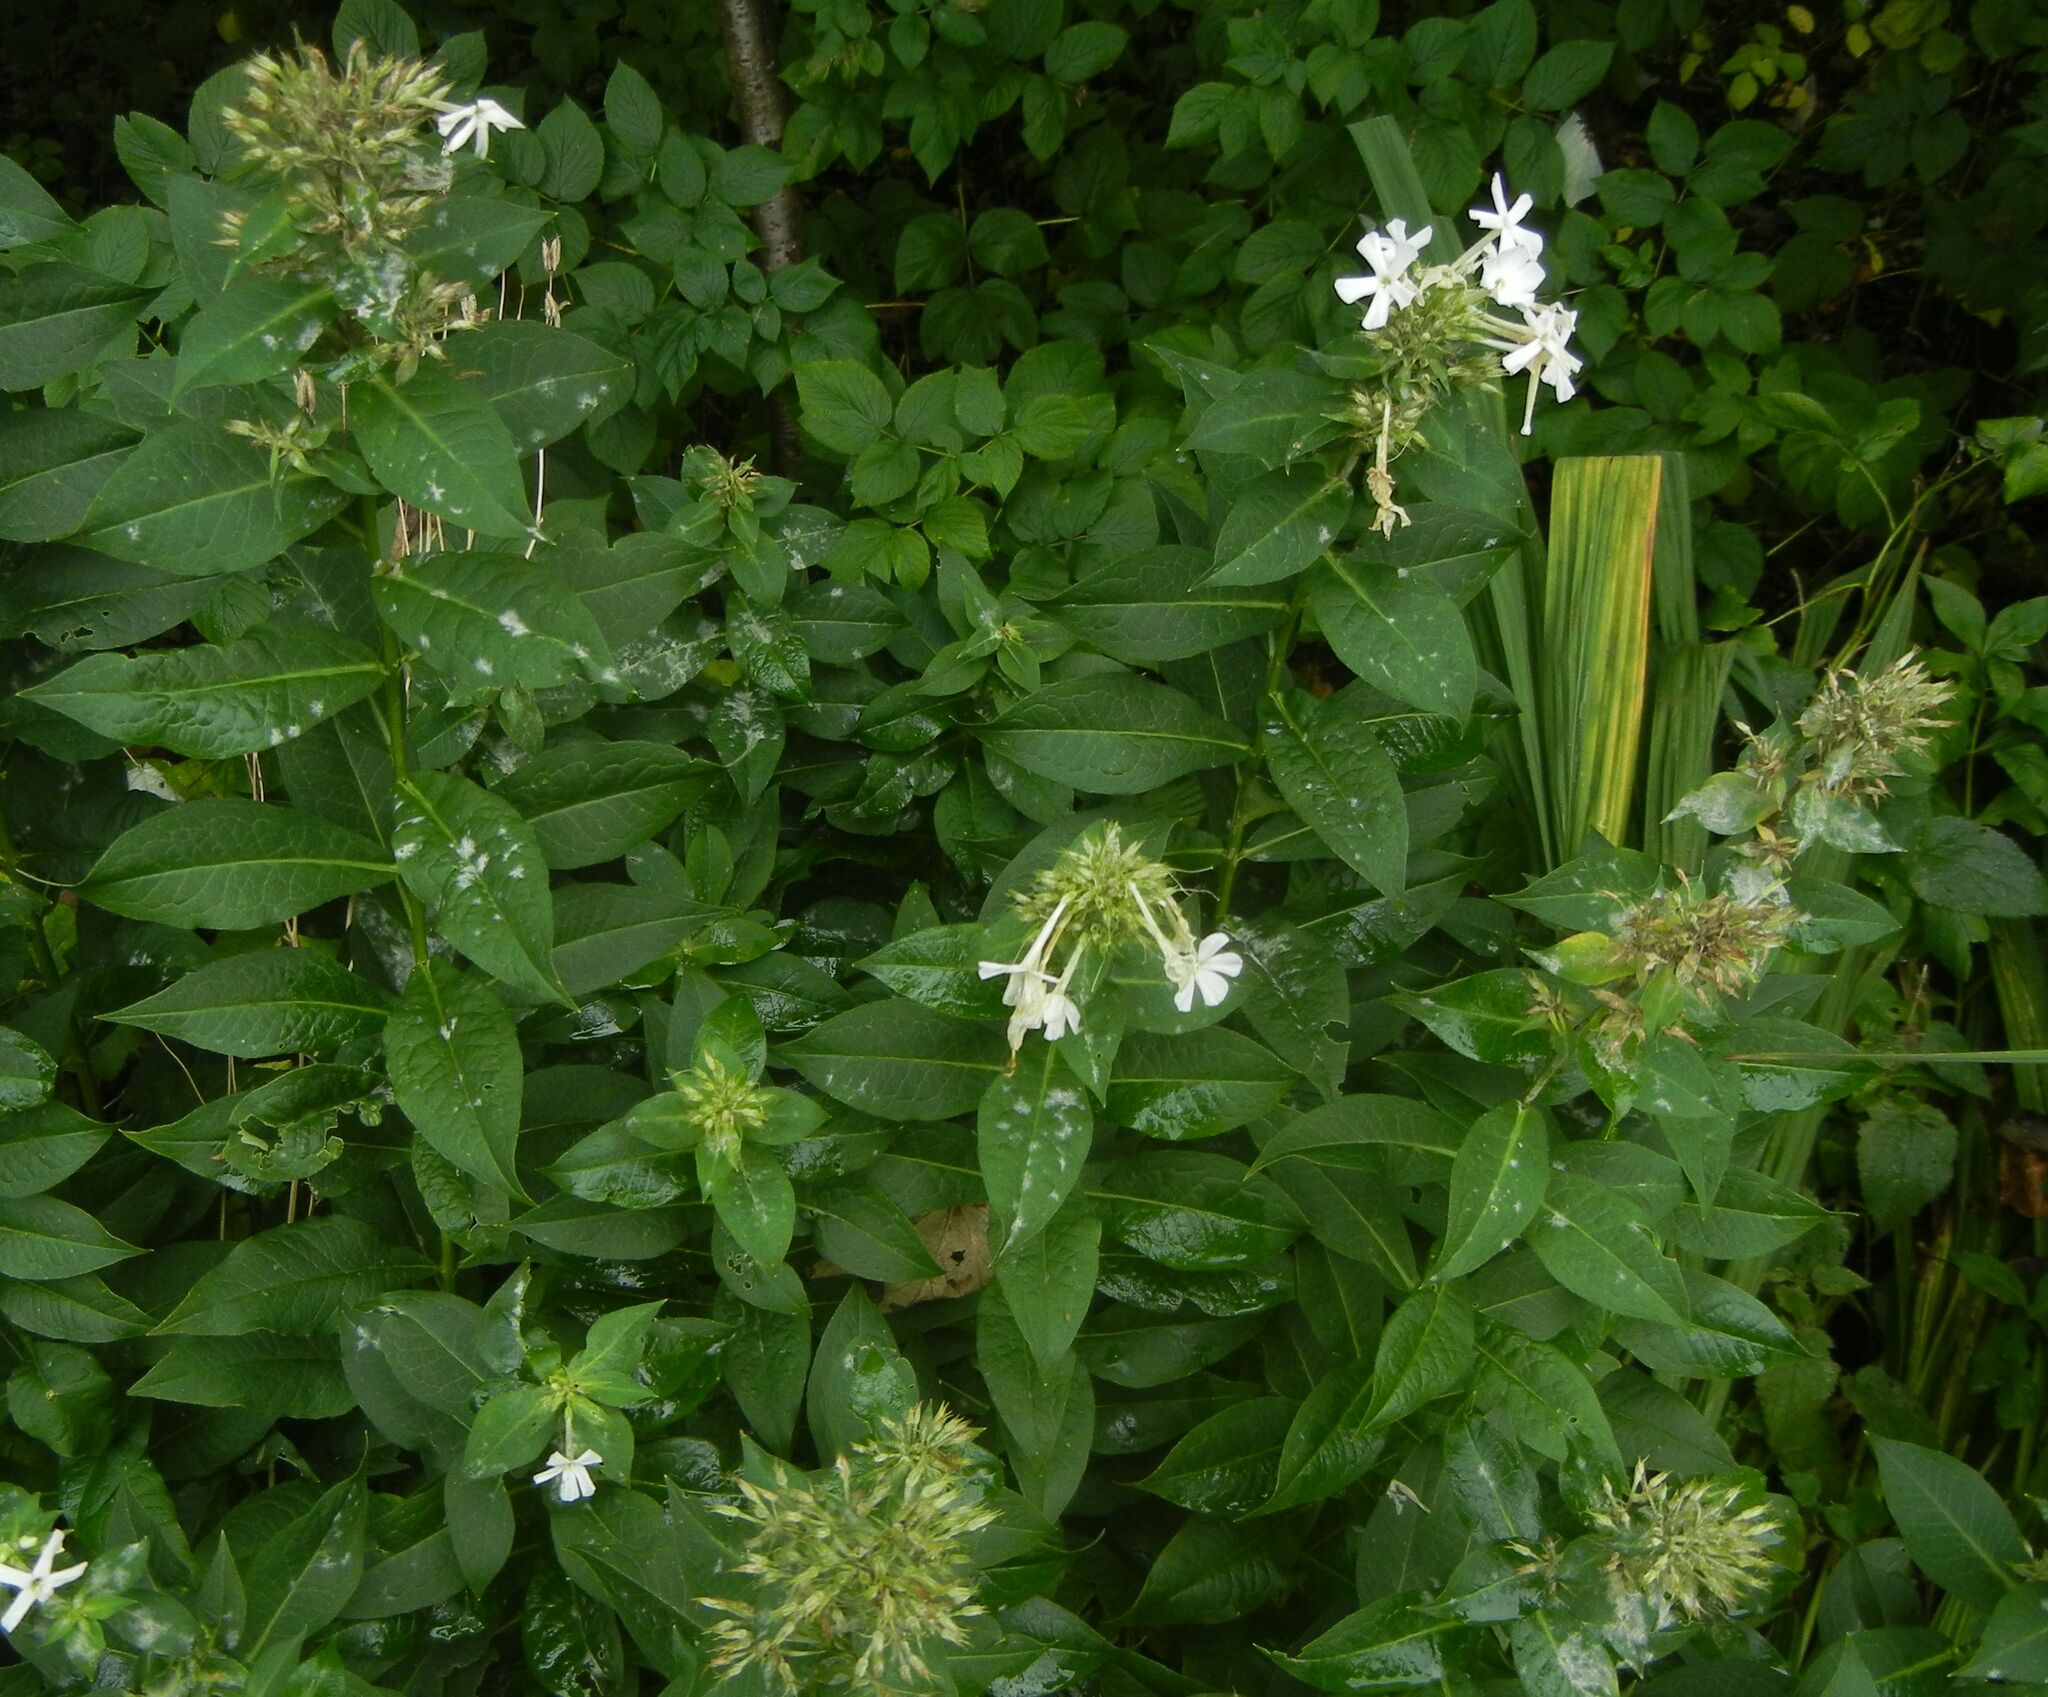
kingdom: Plantae
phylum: Tracheophyta
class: Magnoliopsida
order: Ericales
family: Polemoniaceae
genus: Phlox
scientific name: Phlox paniculata
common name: Fall phlox
